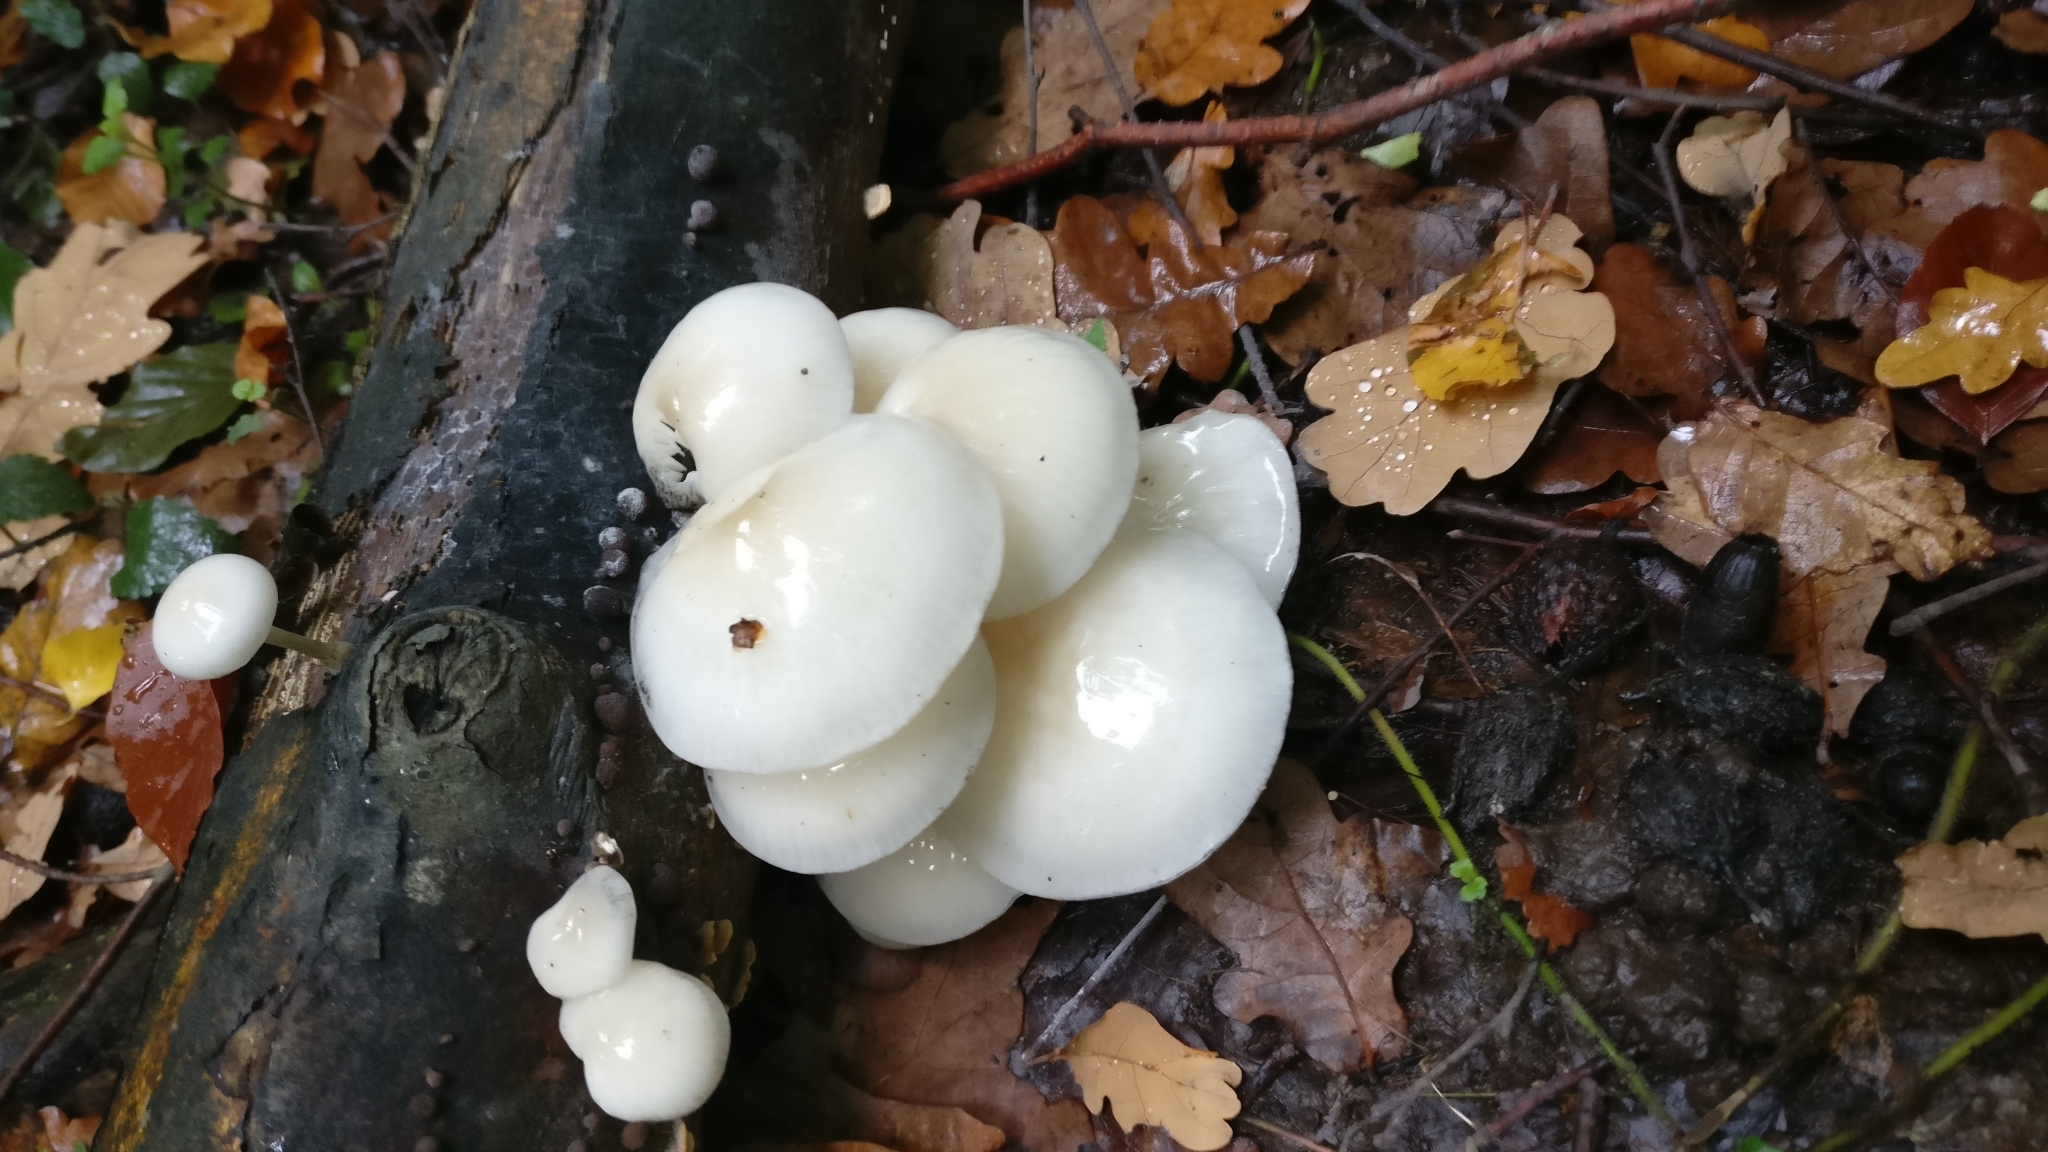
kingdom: Fungi
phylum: Basidiomycota
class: Agaricomycetes
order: Agaricales
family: Physalacriaceae
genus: Mucidula
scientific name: Mucidula mucida
